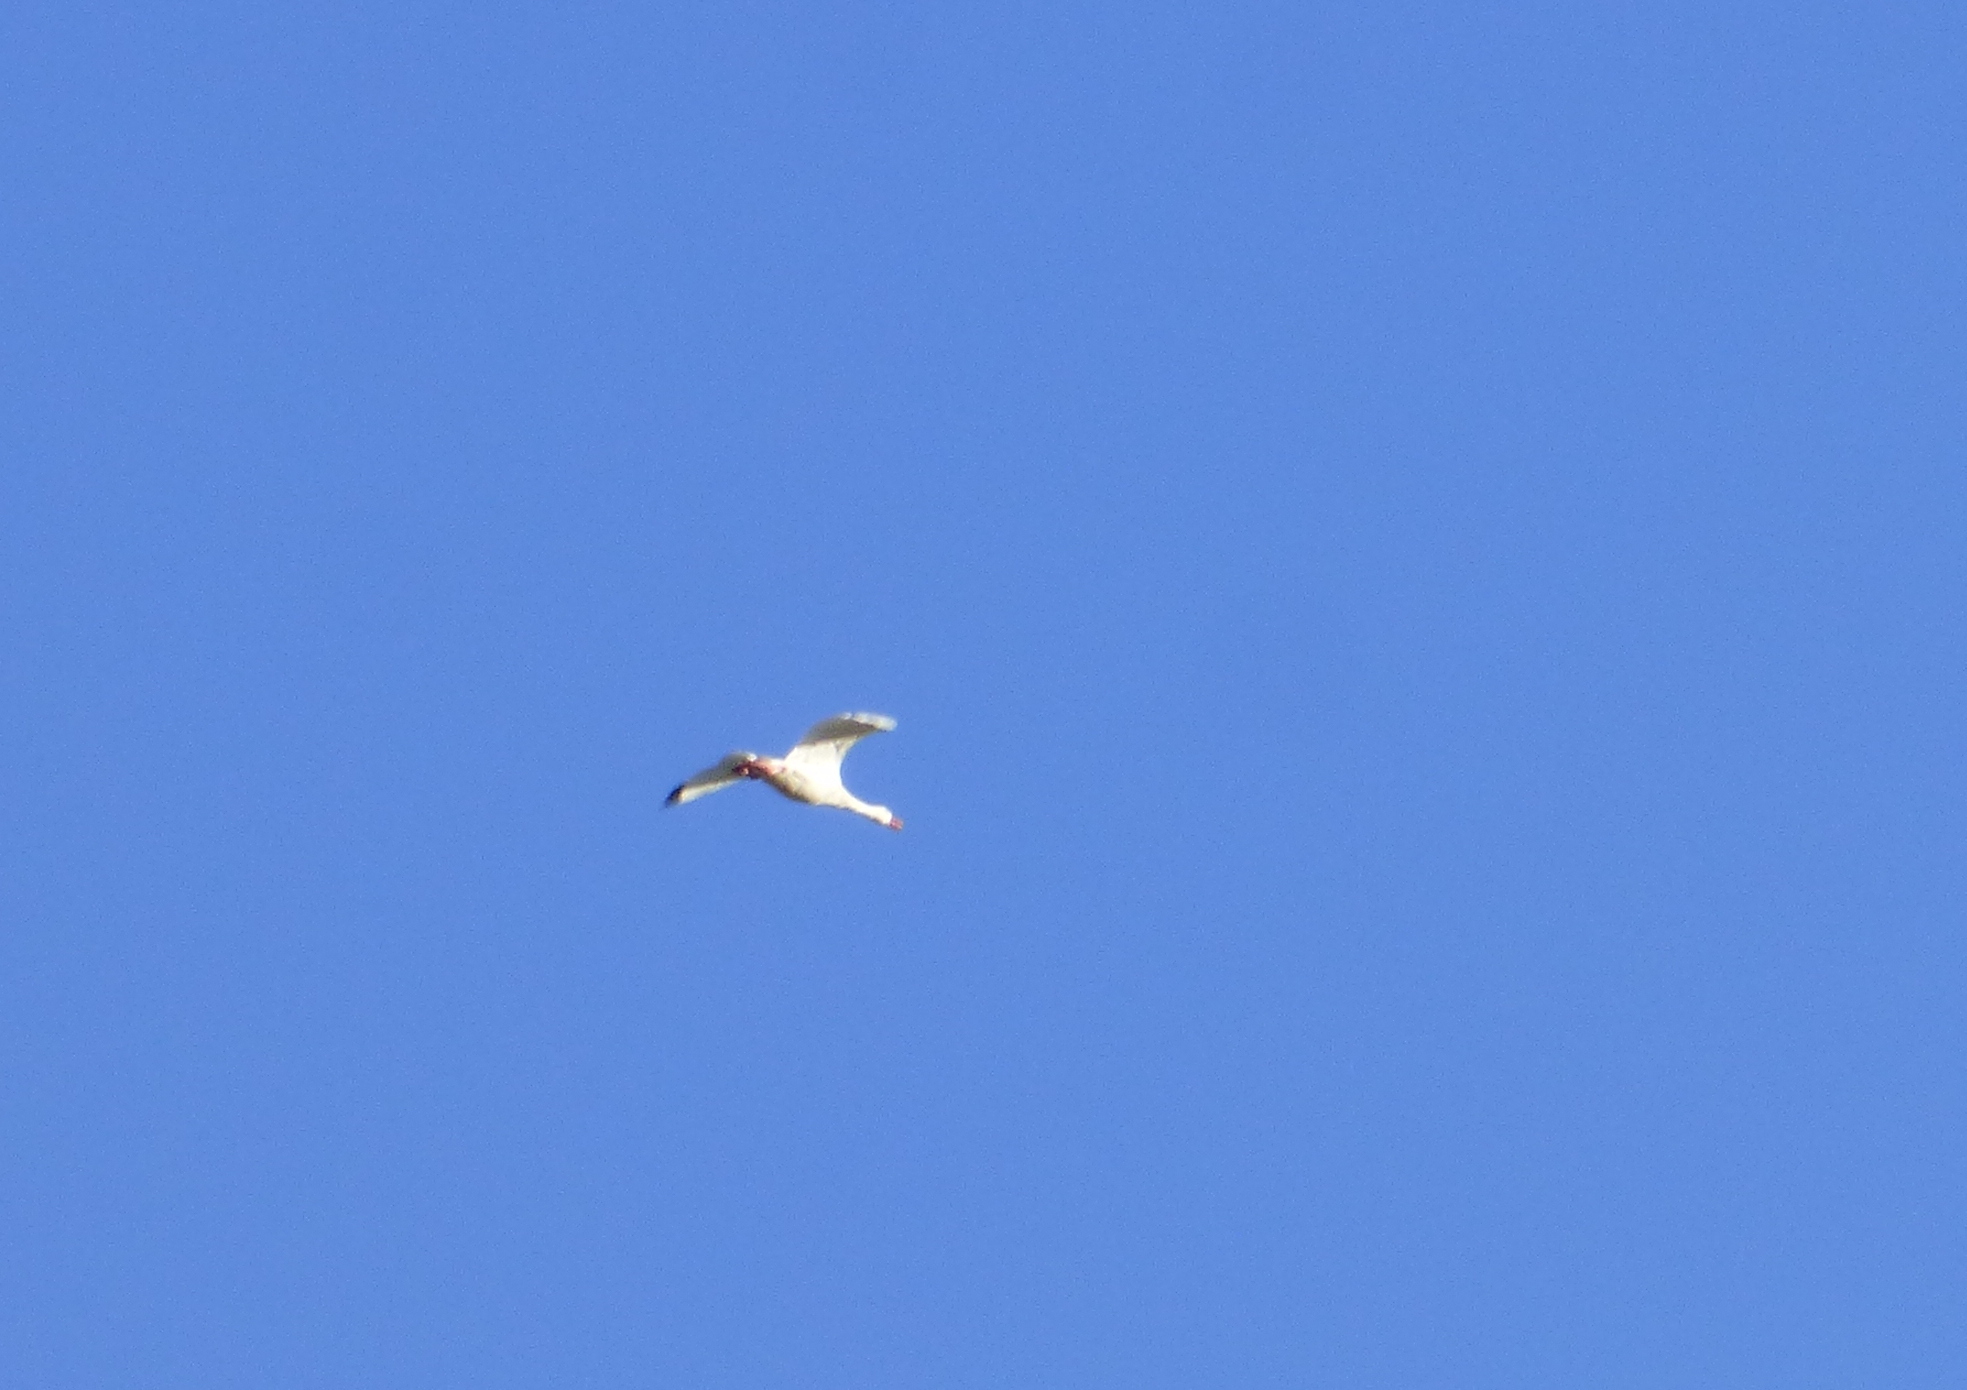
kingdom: Animalia
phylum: Chordata
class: Aves
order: Anseriformes
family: Anatidae
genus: Coscoroba
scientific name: Coscoroba coscoroba
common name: Coscoroba swan
